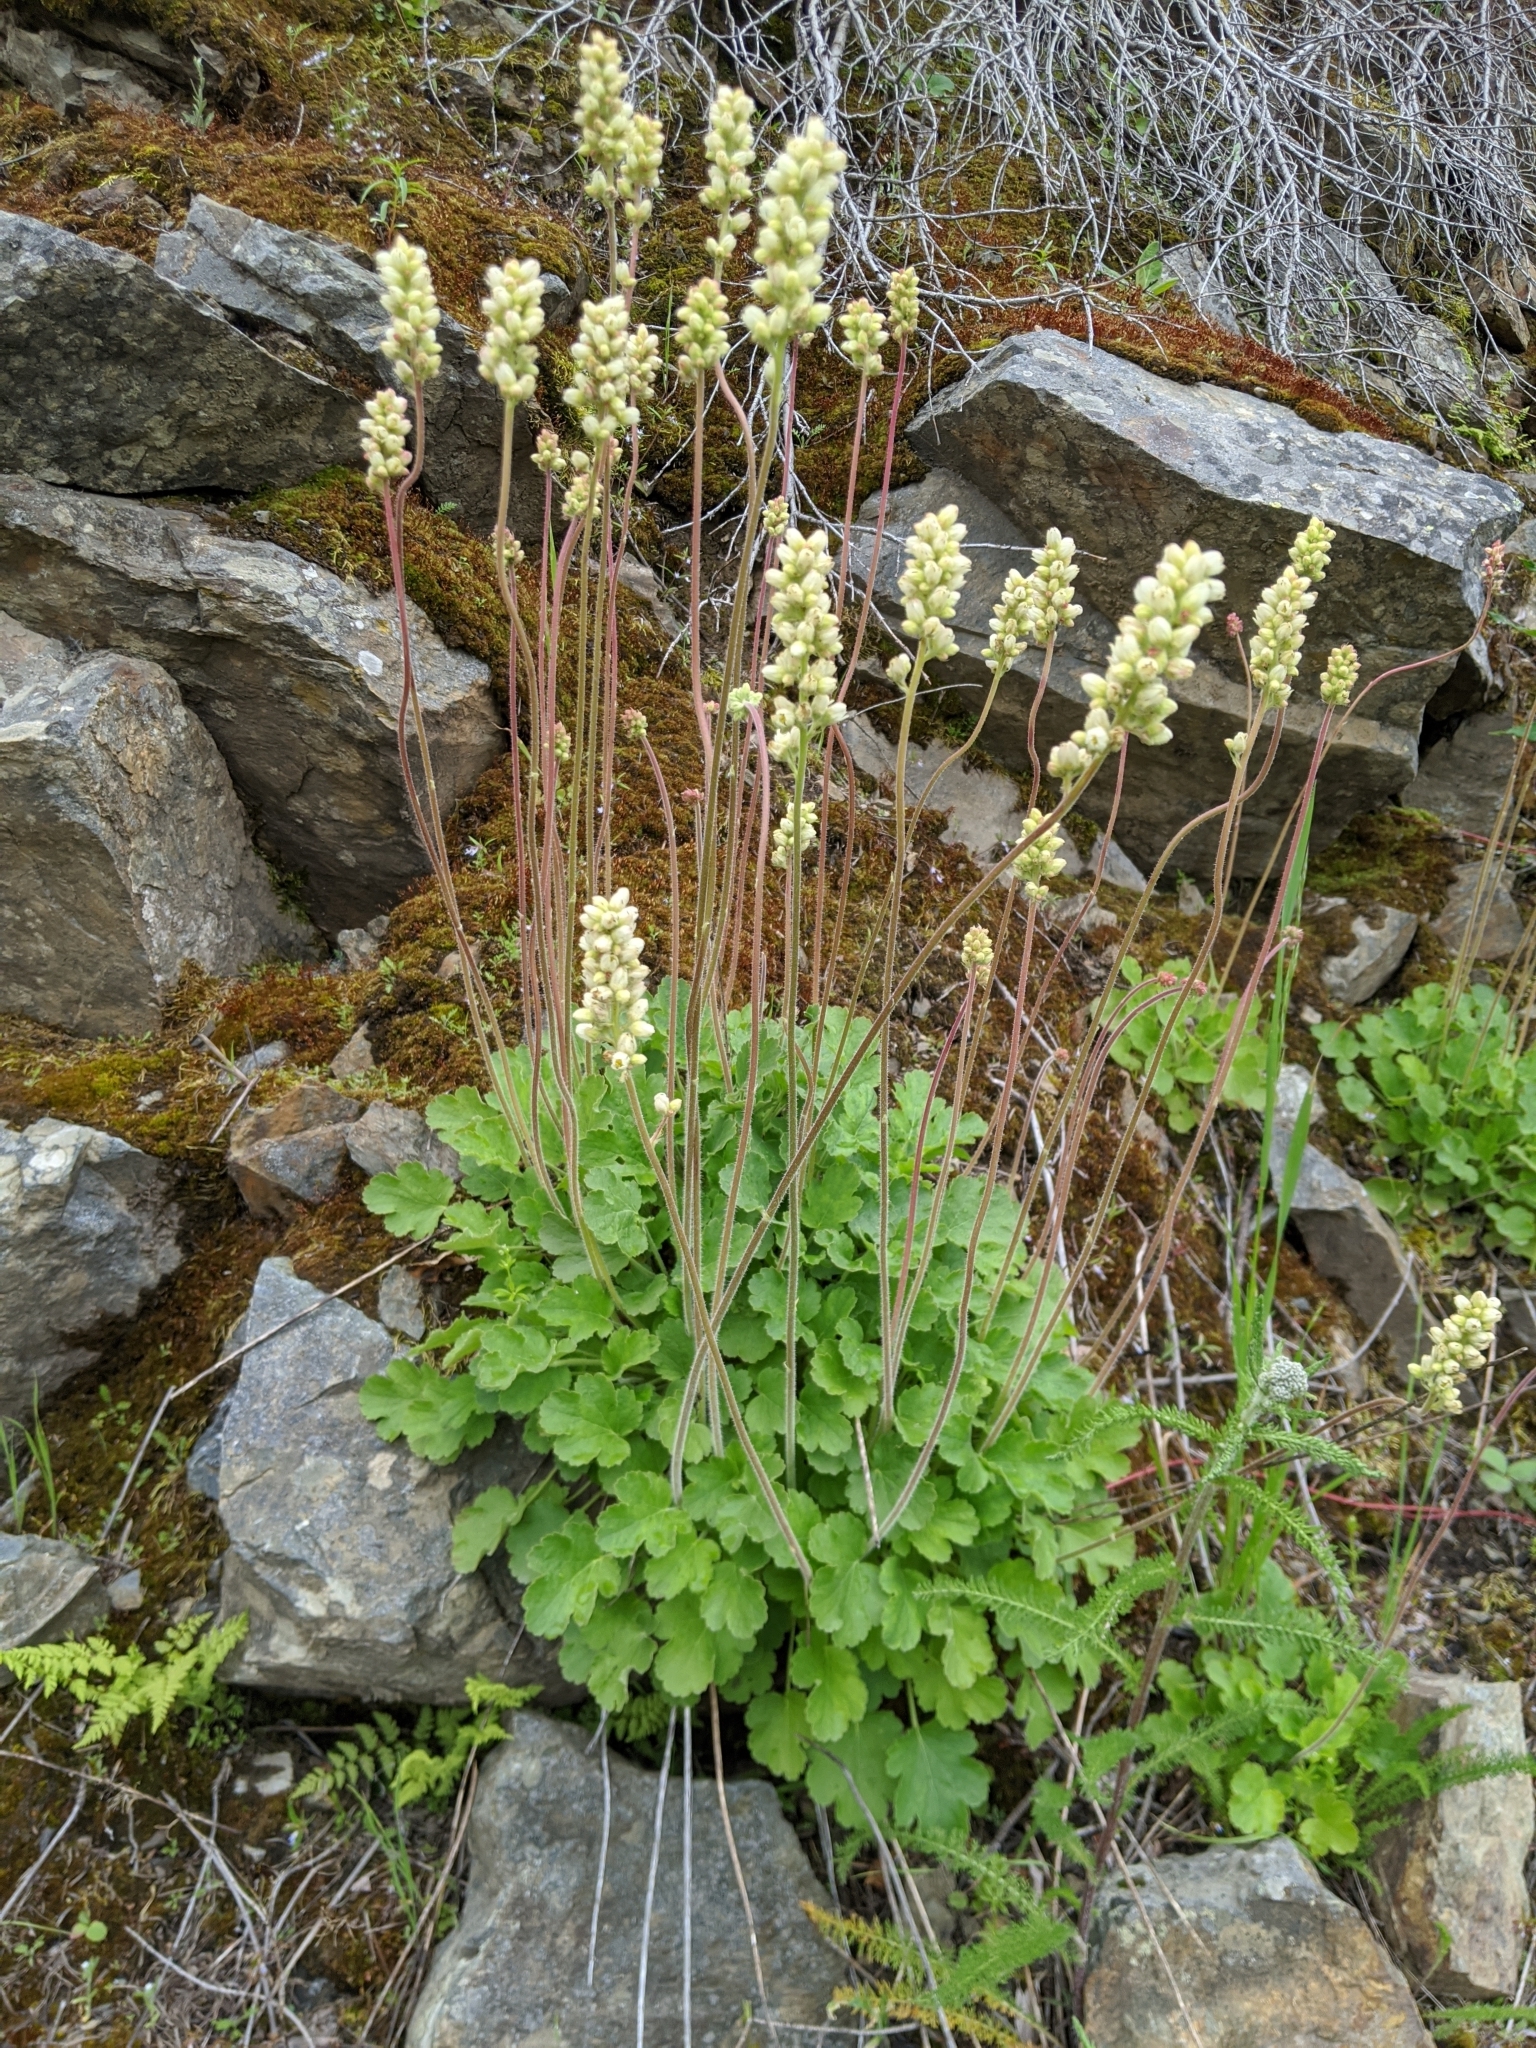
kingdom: Plantae
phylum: Tracheophyta
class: Magnoliopsida
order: Saxifragales
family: Saxifragaceae
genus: Heuchera
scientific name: Heuchera cylindrica
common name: Mat alumroot
